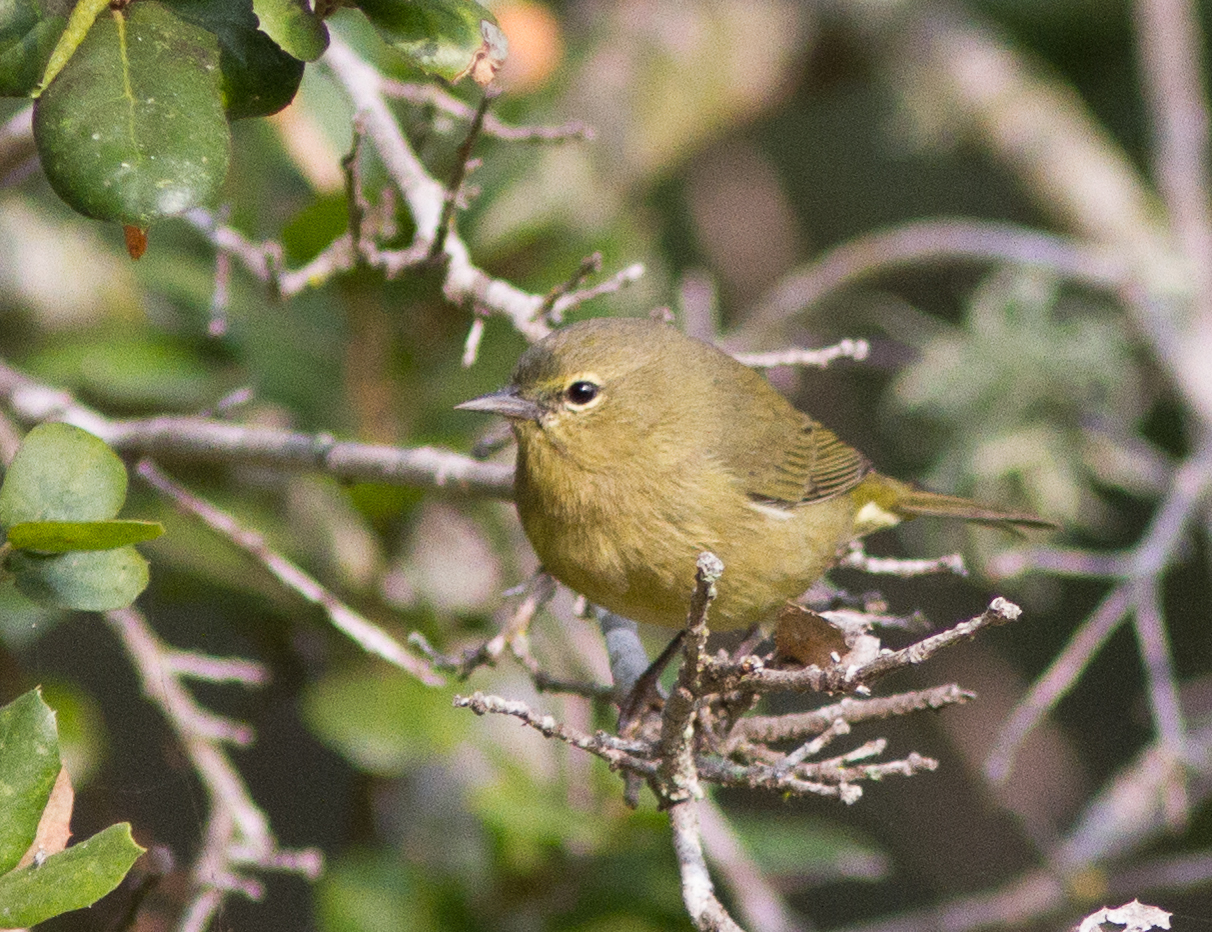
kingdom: Animalia
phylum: Chordata
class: Aves
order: Passeriformes
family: Parulidae
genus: Leiothlypis
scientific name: Leiothlypis celata
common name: Orange-crowned warbler
